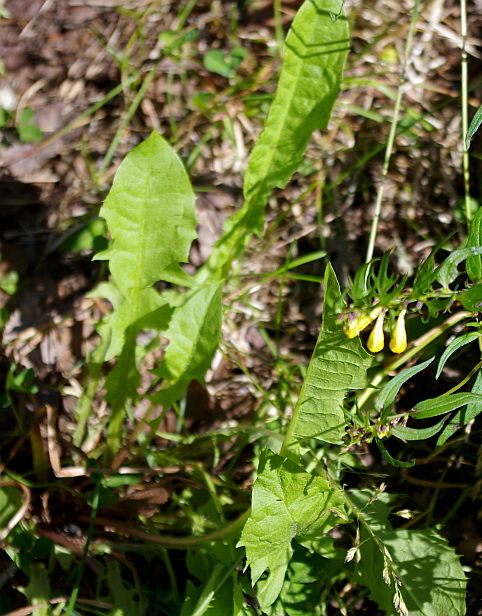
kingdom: Plantae
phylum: Tracheophyta
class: Magnoliopsida
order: Asterales
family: Asteraceae
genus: Taraxacum
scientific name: Taraxacum officinale
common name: Common dandelion
